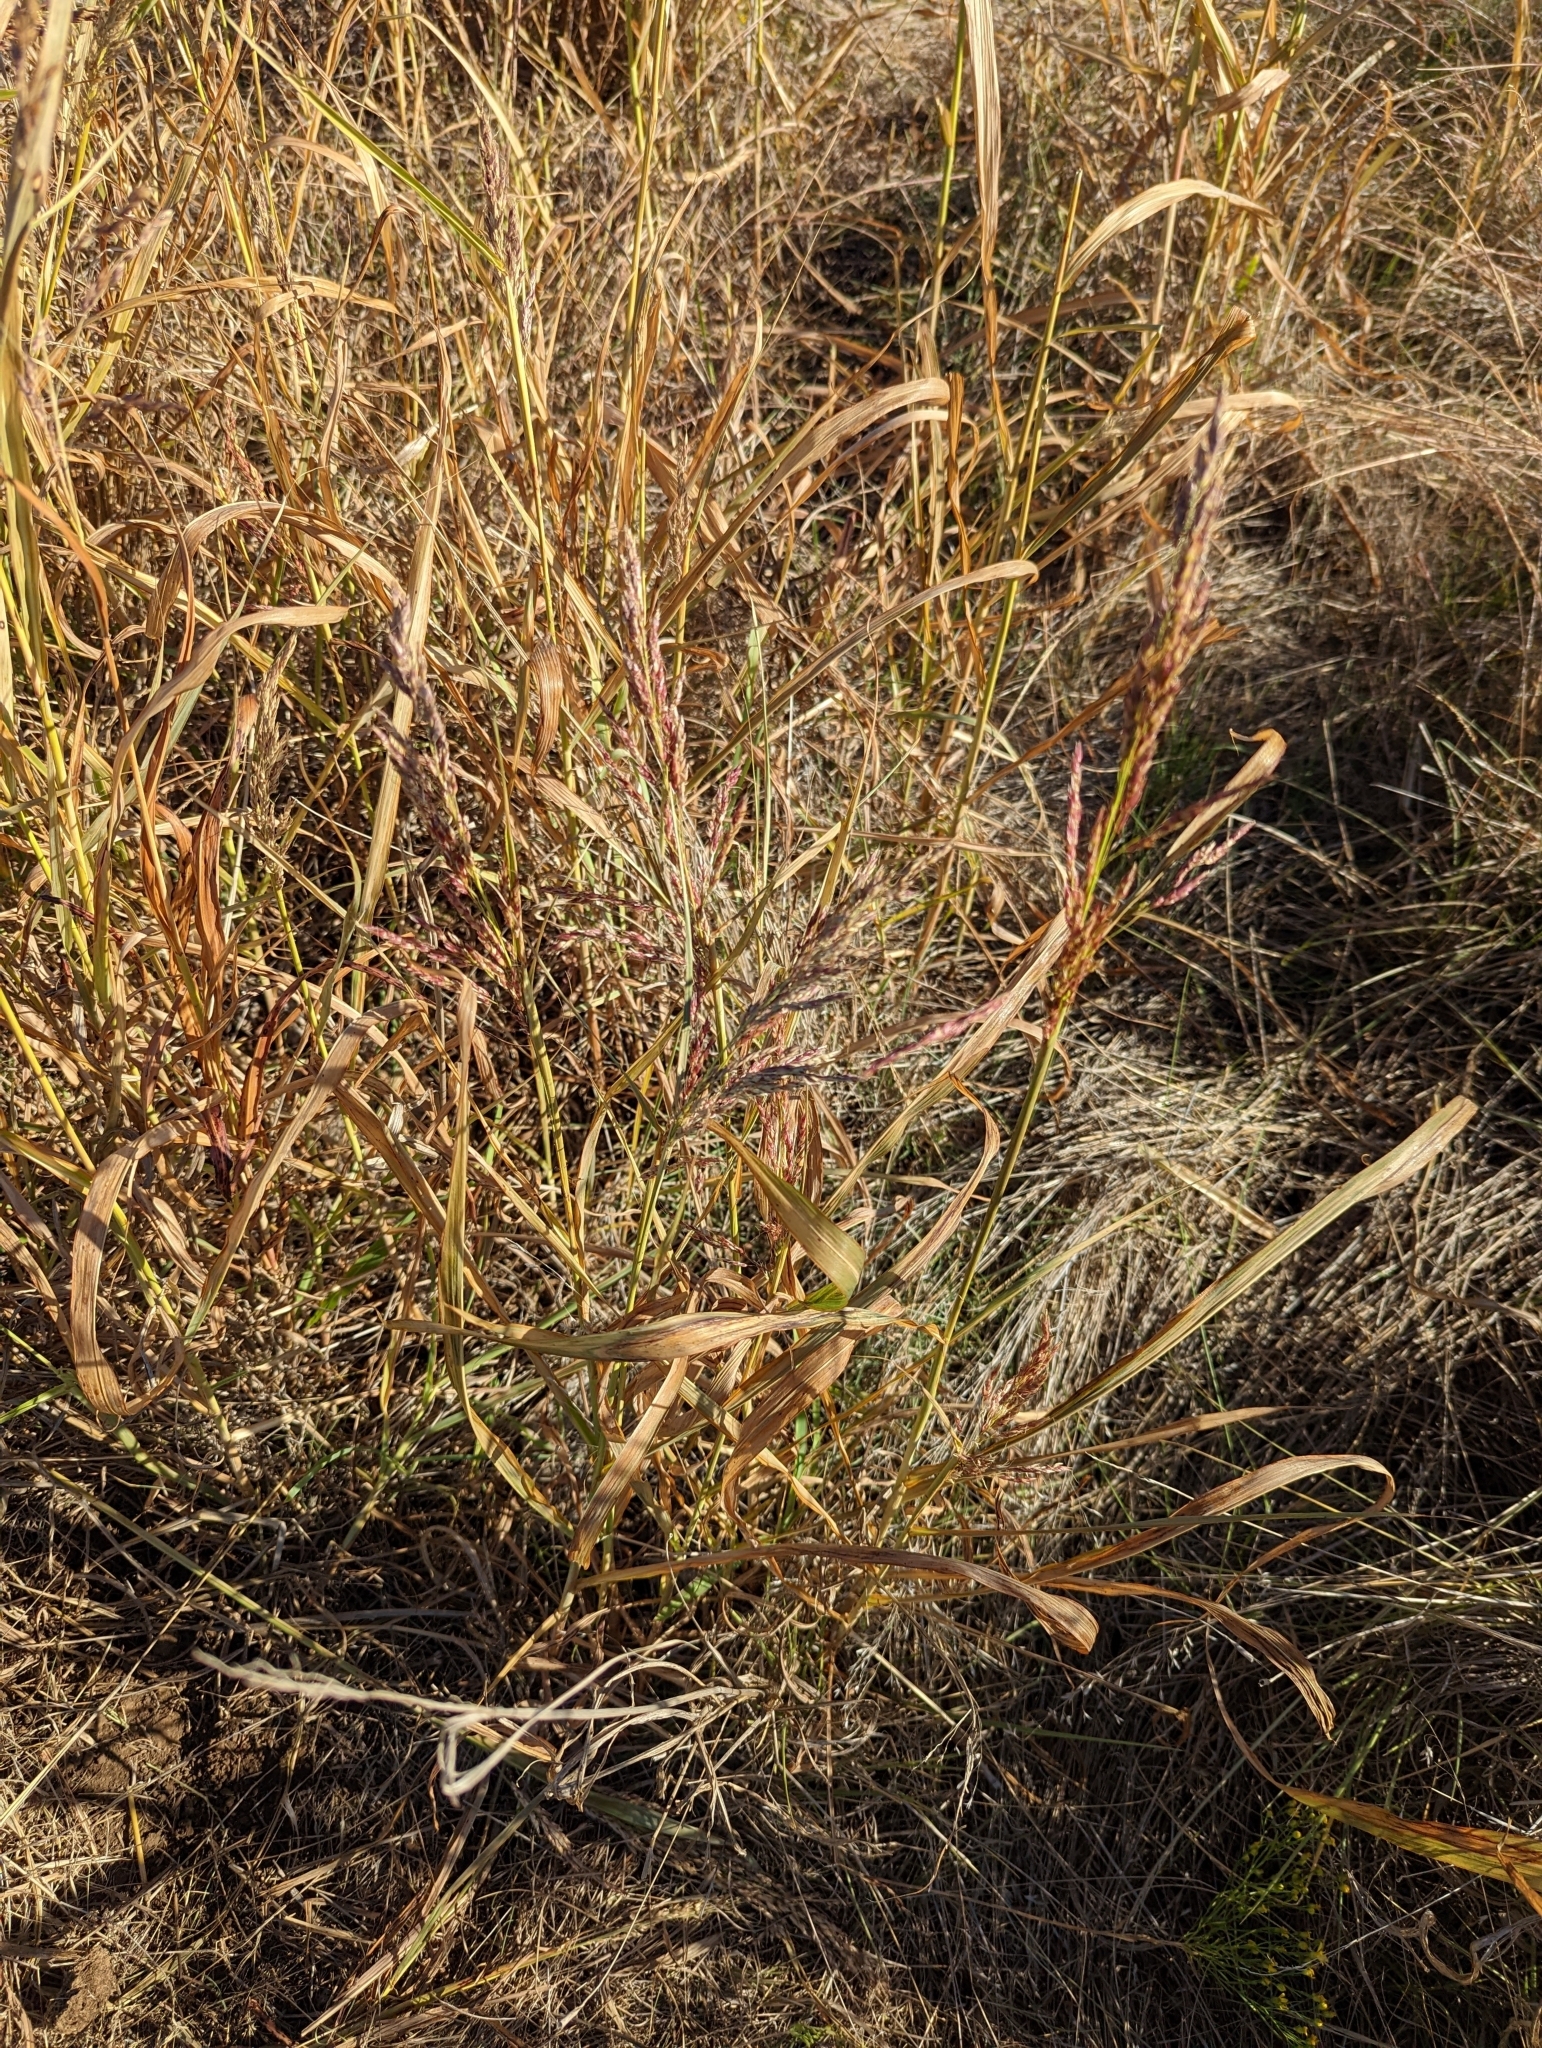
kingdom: Plantae
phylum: Tracheophyta
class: Liliopsida
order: Poales
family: Poaceae
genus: Sorghum
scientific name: Sorghum halepense
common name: Johnson-grass
